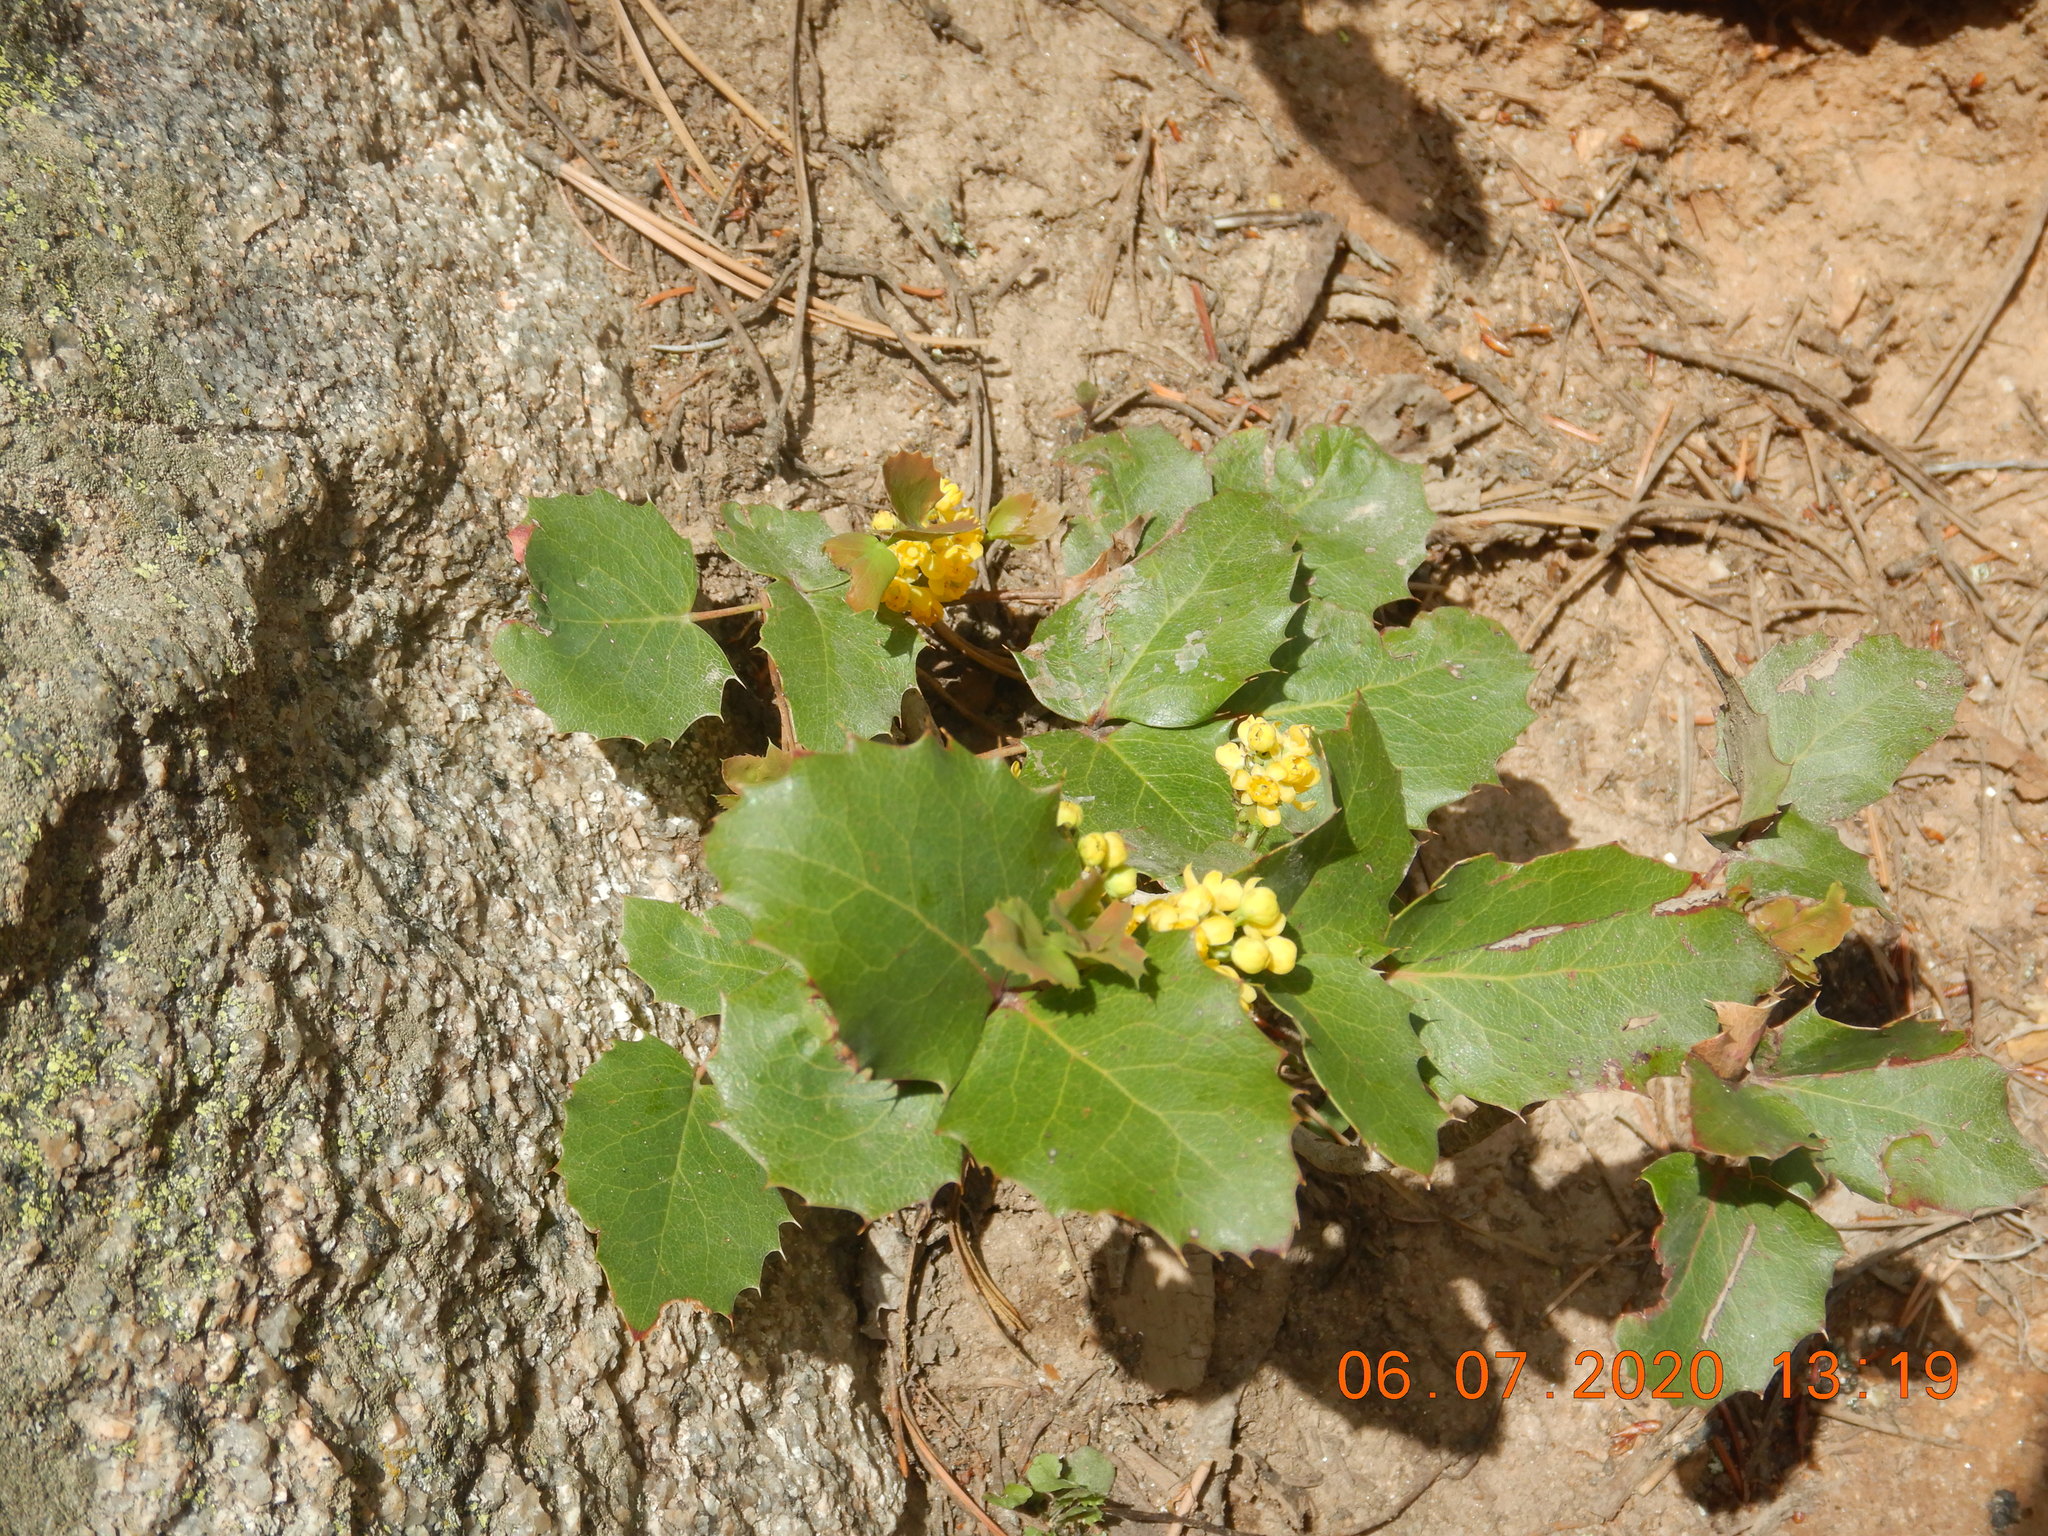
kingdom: Plantae
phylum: Tracheophyta
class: Magnoliopsida
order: Ranunculales
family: Berberidaceae
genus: Mahonia
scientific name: Mahonia repens
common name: Creeping oregon-grape
